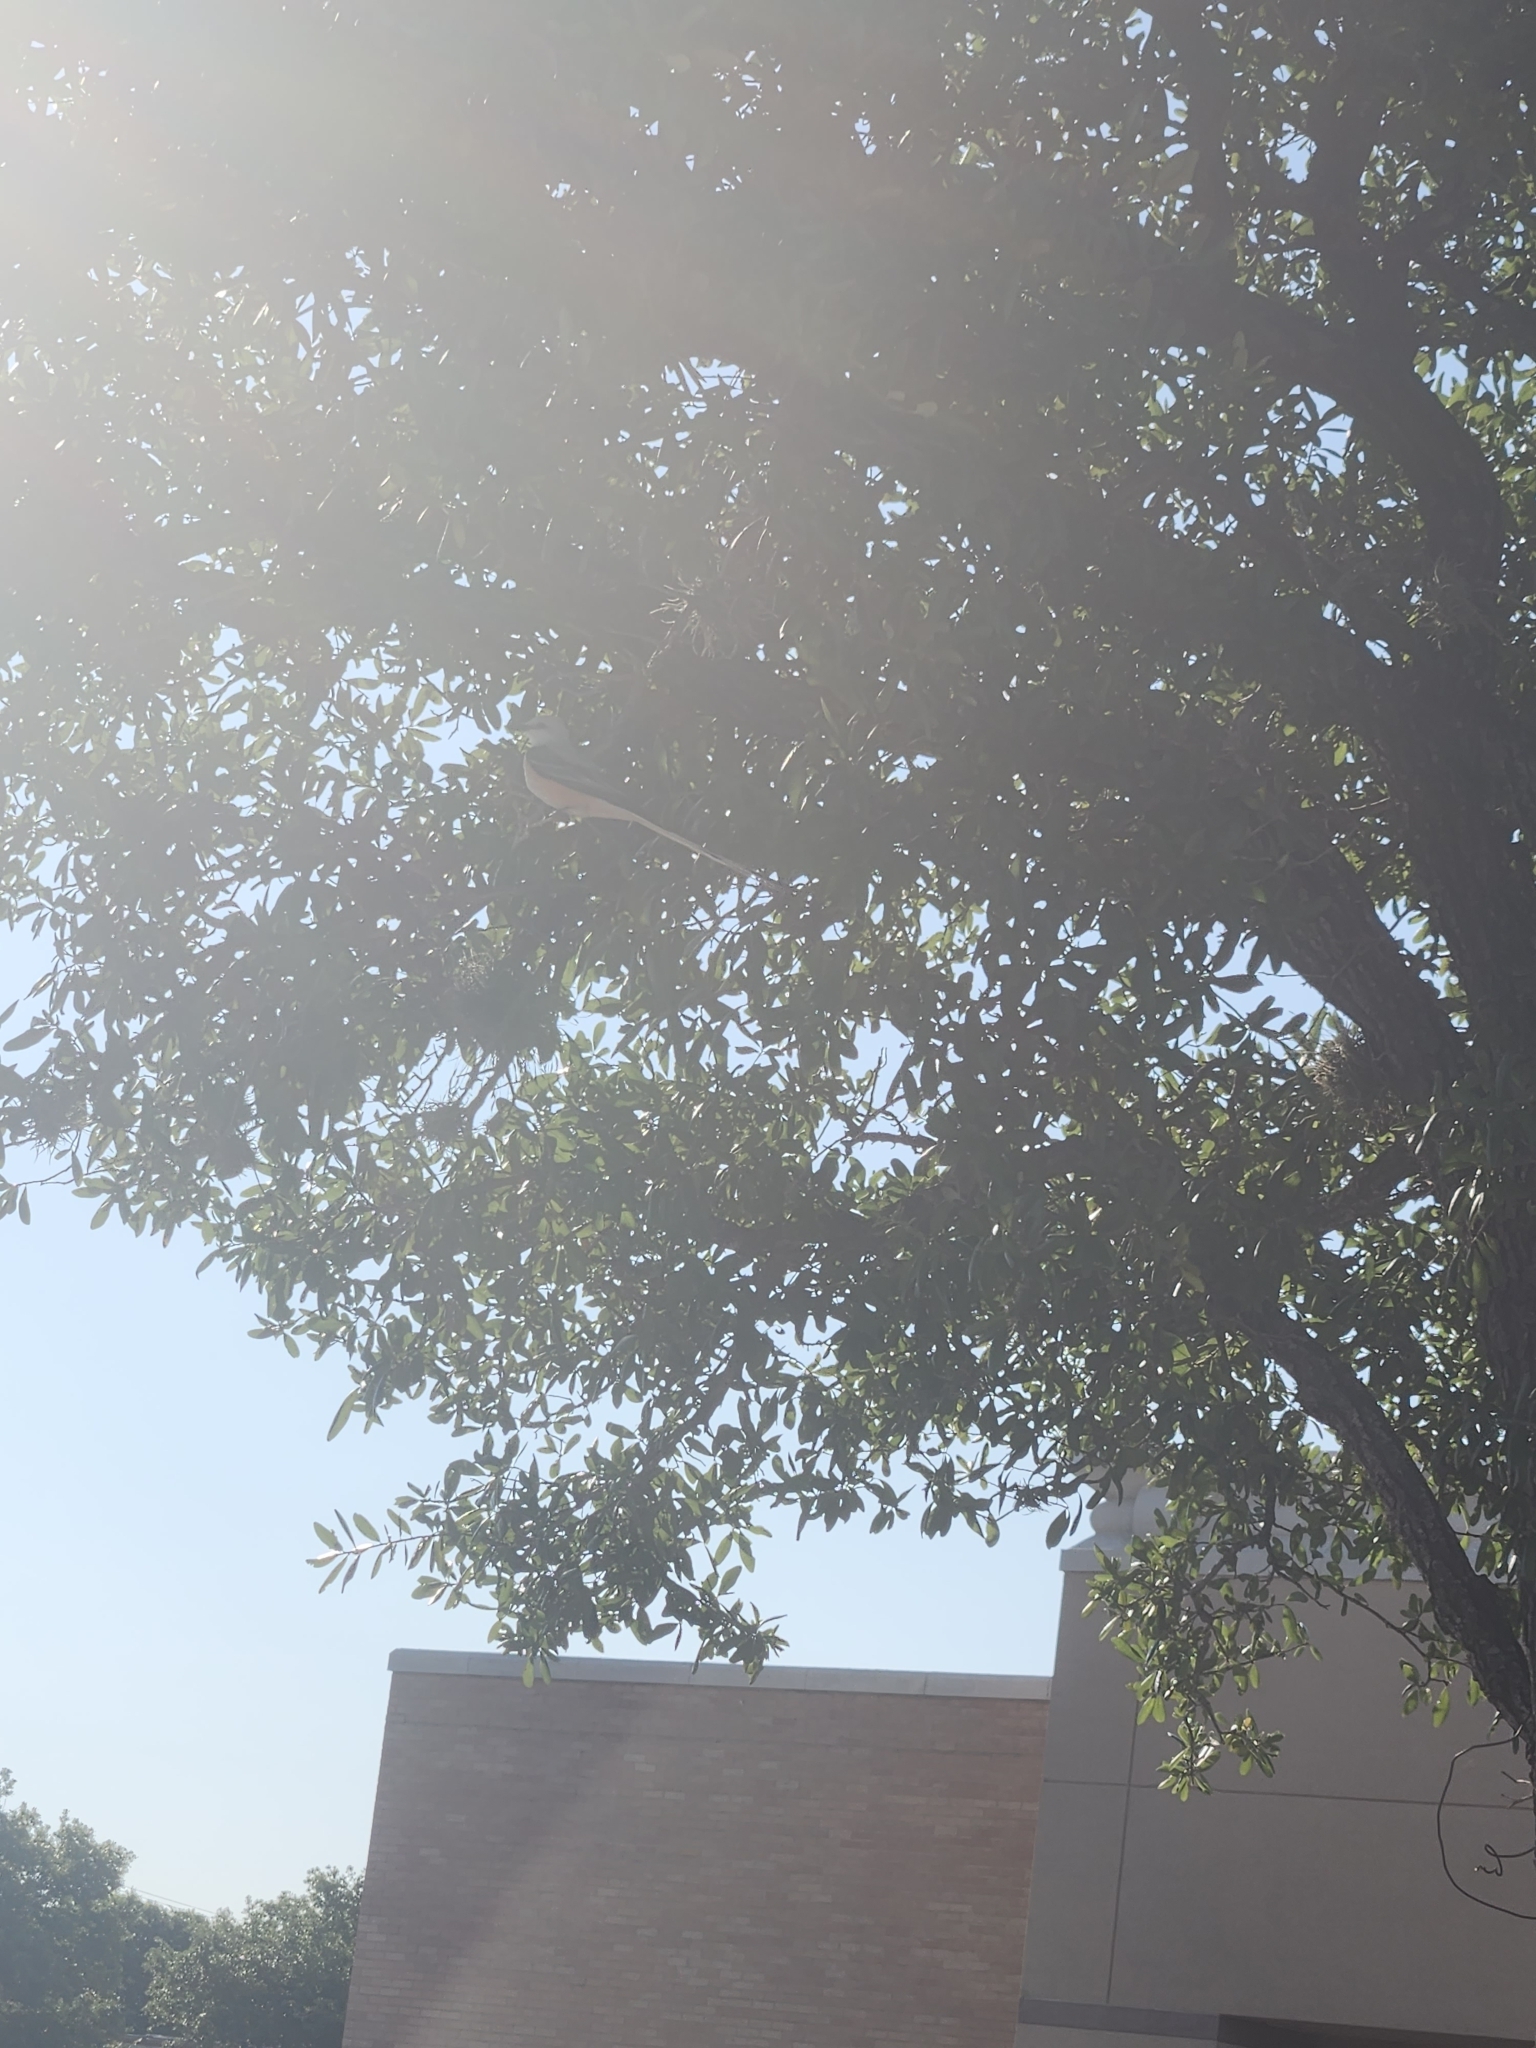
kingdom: Animalia
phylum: Chordata
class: Aves
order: Passeriformes
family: Tyrannidae
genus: Tyrannus
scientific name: Tyrannus forficatus
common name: Scissor-tailed flycatcher
